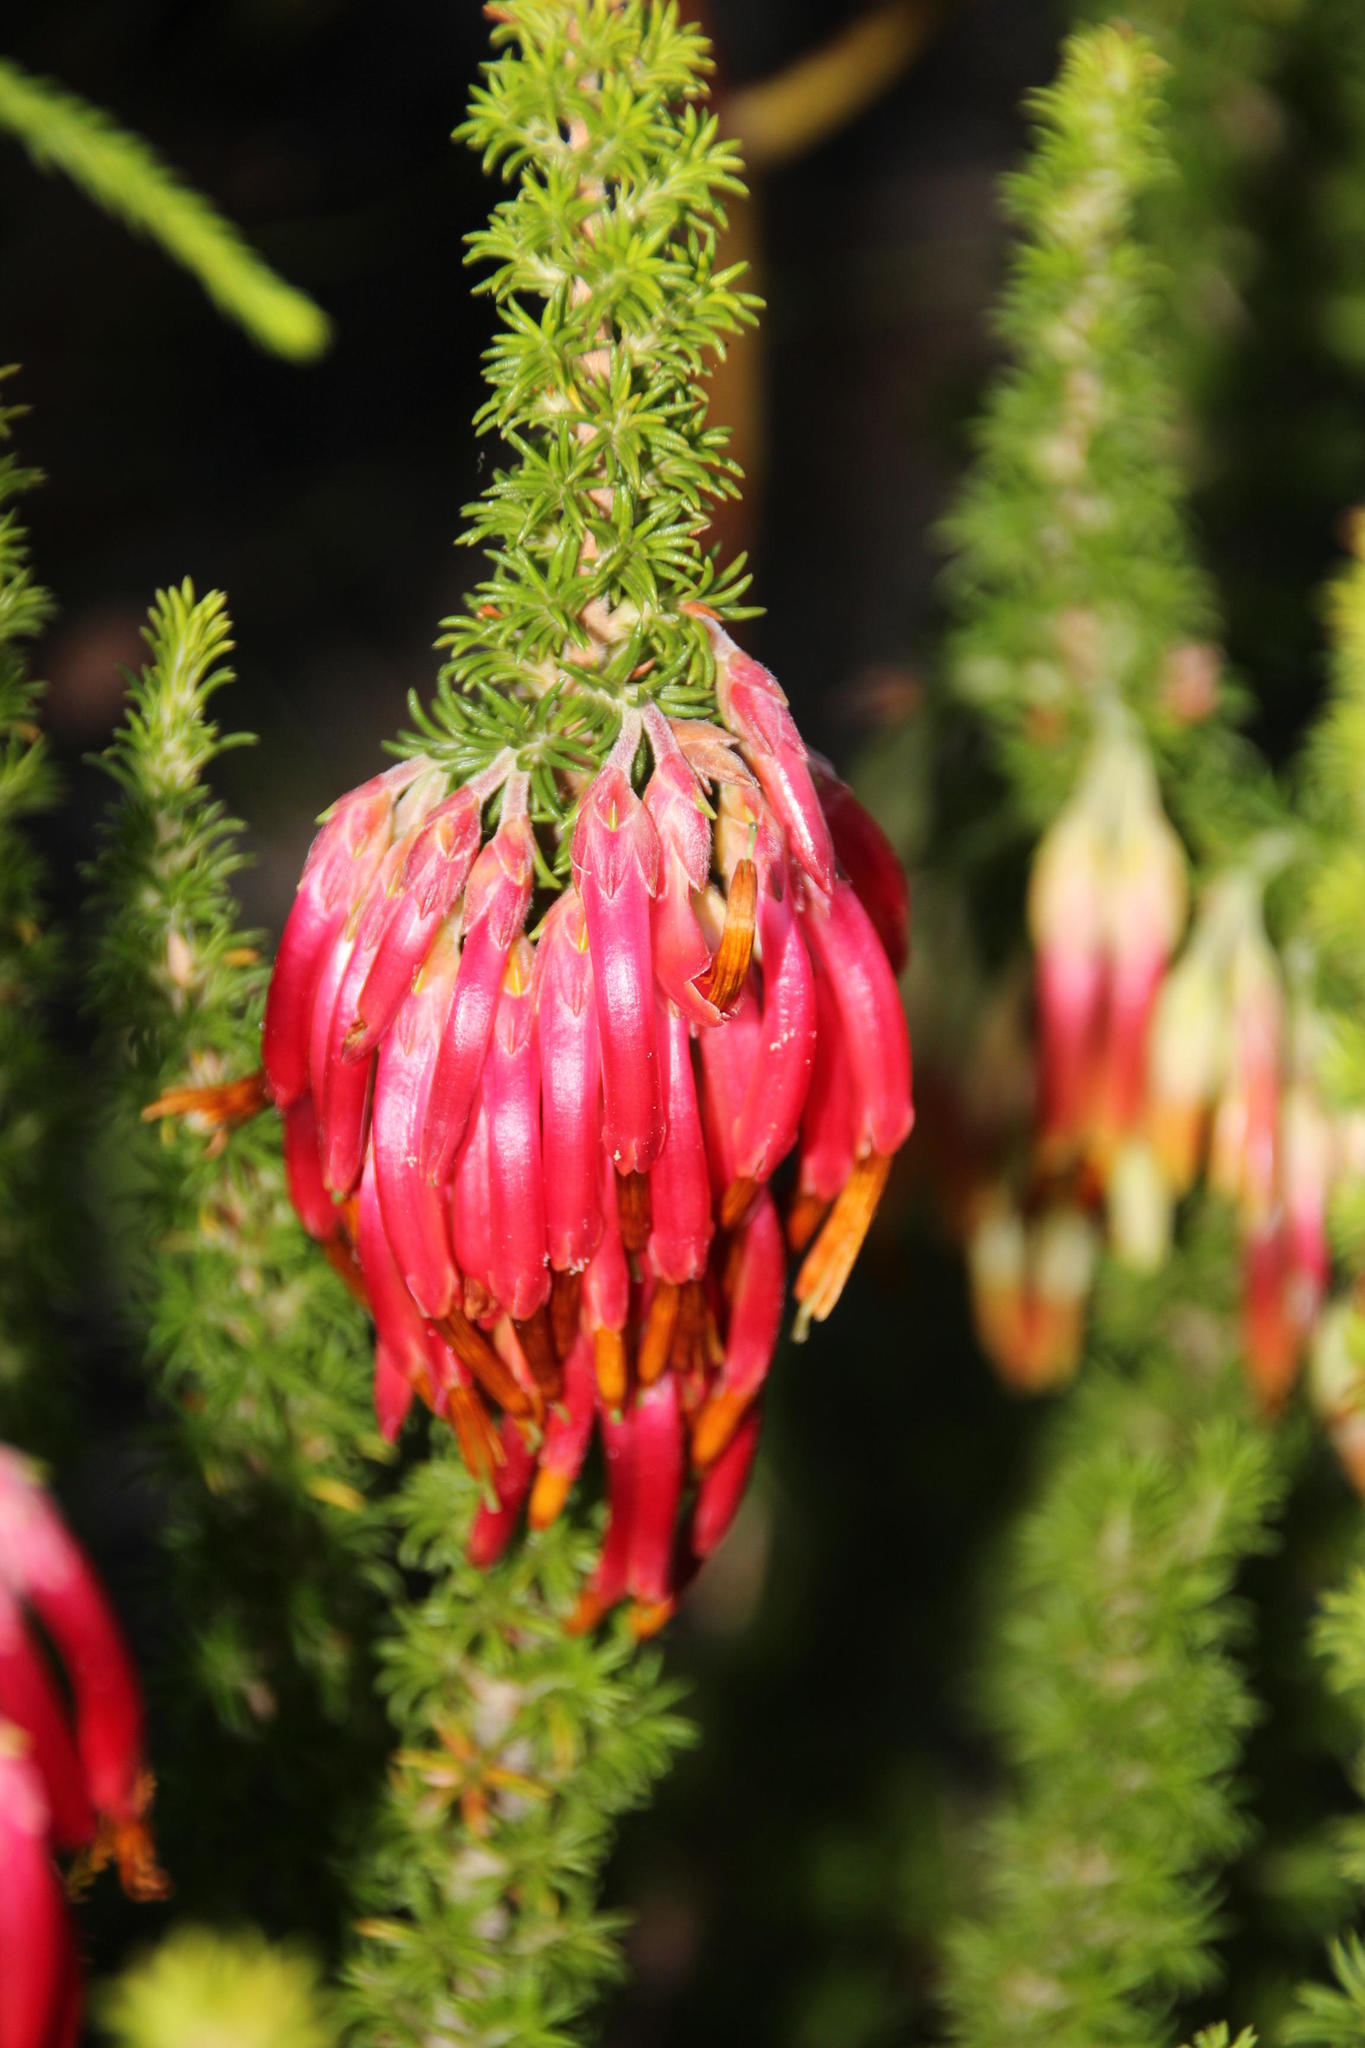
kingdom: Plantae
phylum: Tracheophyta
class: Magnoliopsida
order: Ericales
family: Ericaceae
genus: Erica
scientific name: Erica coccinea
